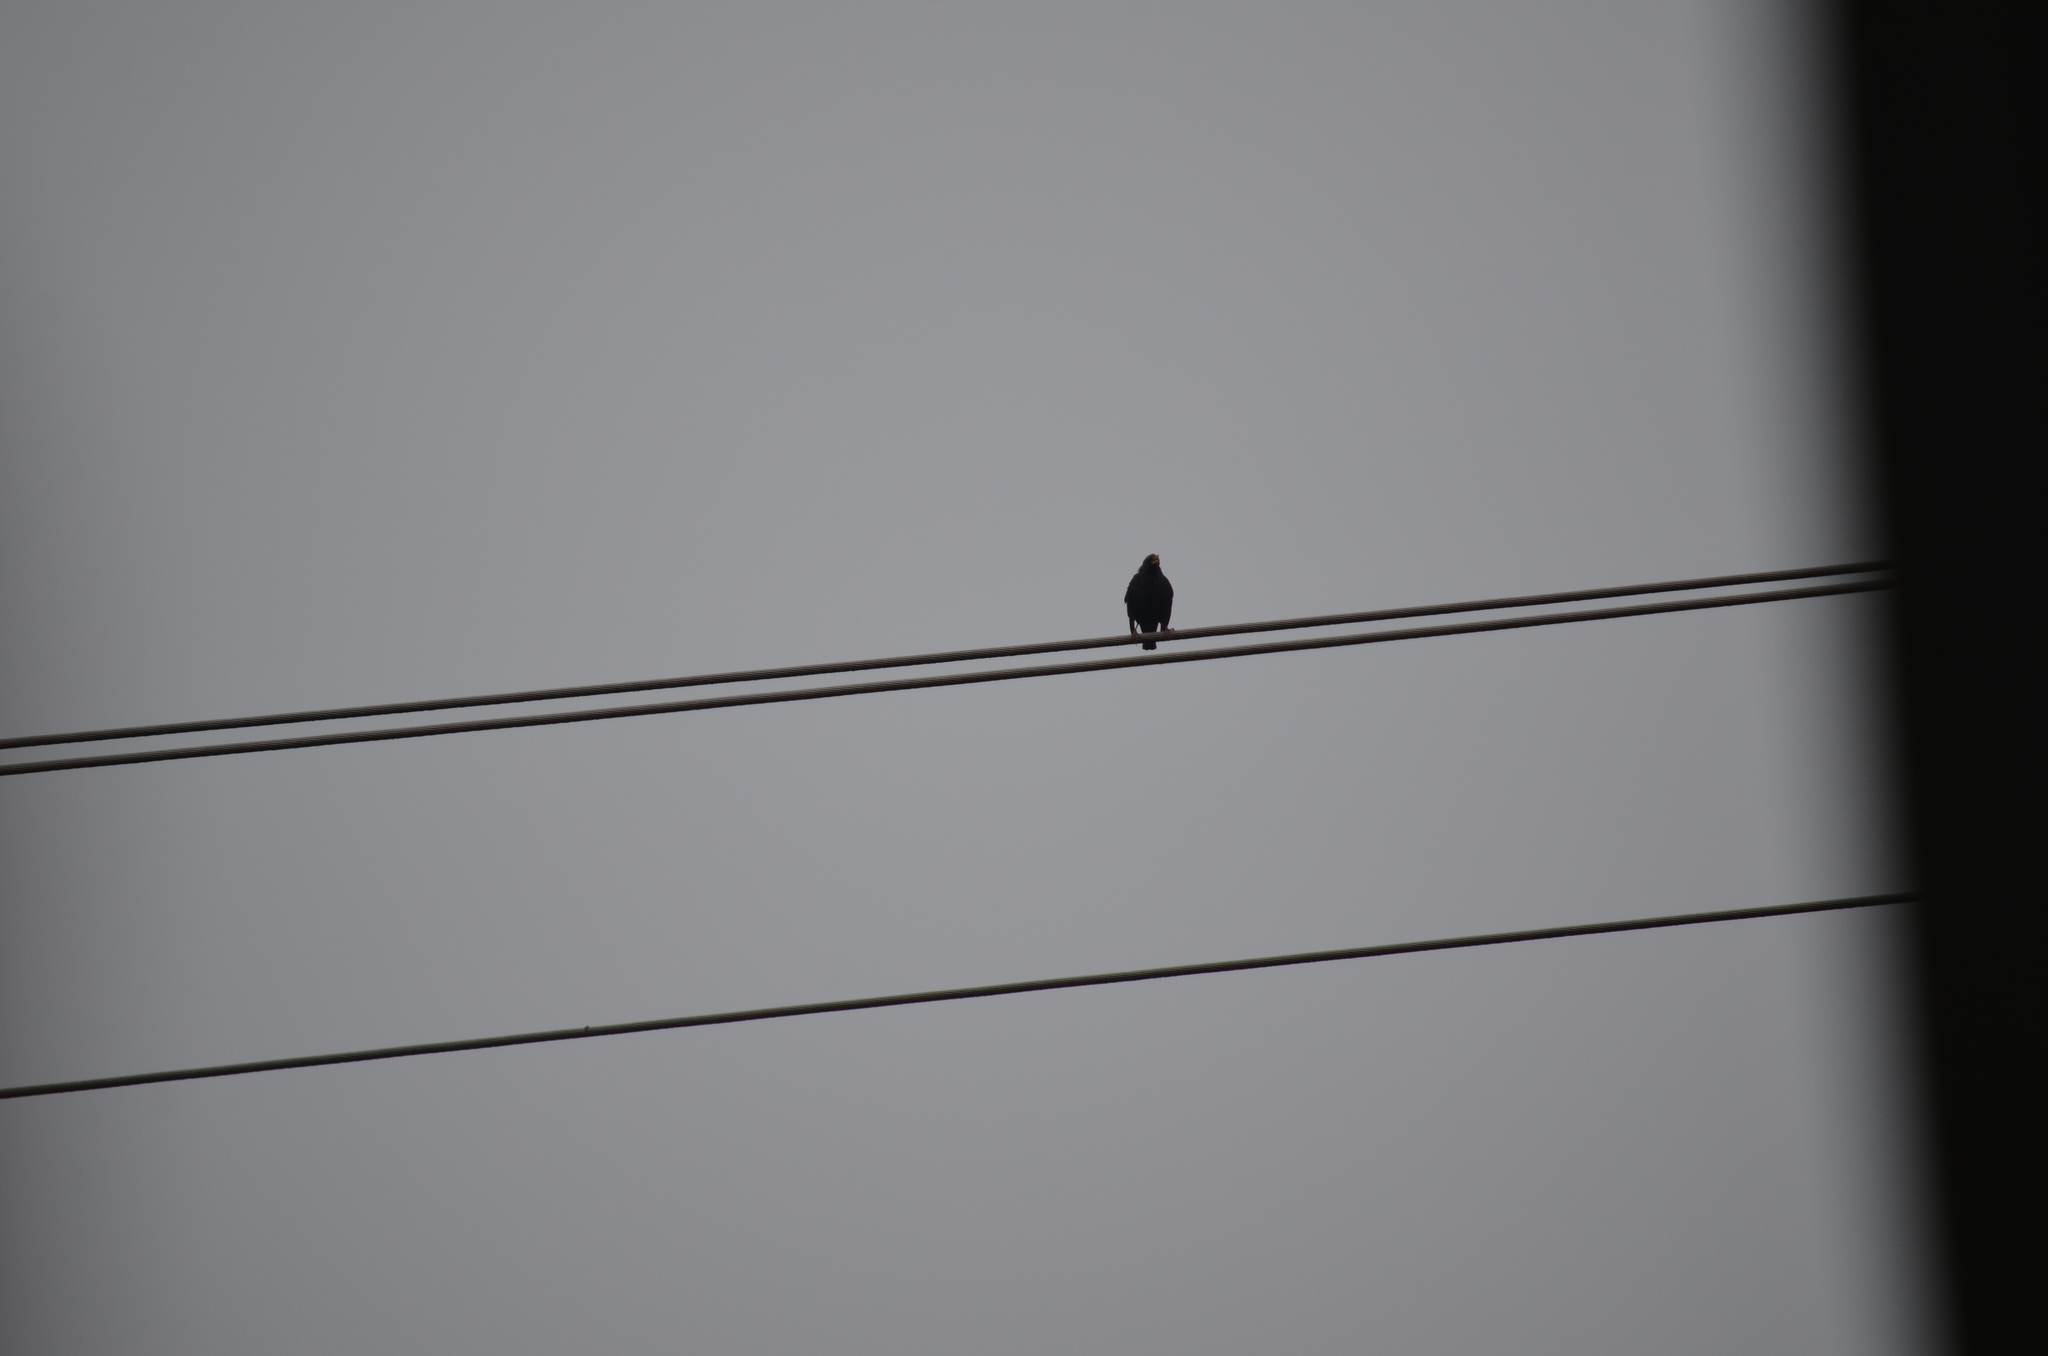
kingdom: Animalia
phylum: Chordata
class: Aves
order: Passeriformes
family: Sturnidae
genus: Sturnus
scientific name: Sturnus vulgaris
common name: Common starling
